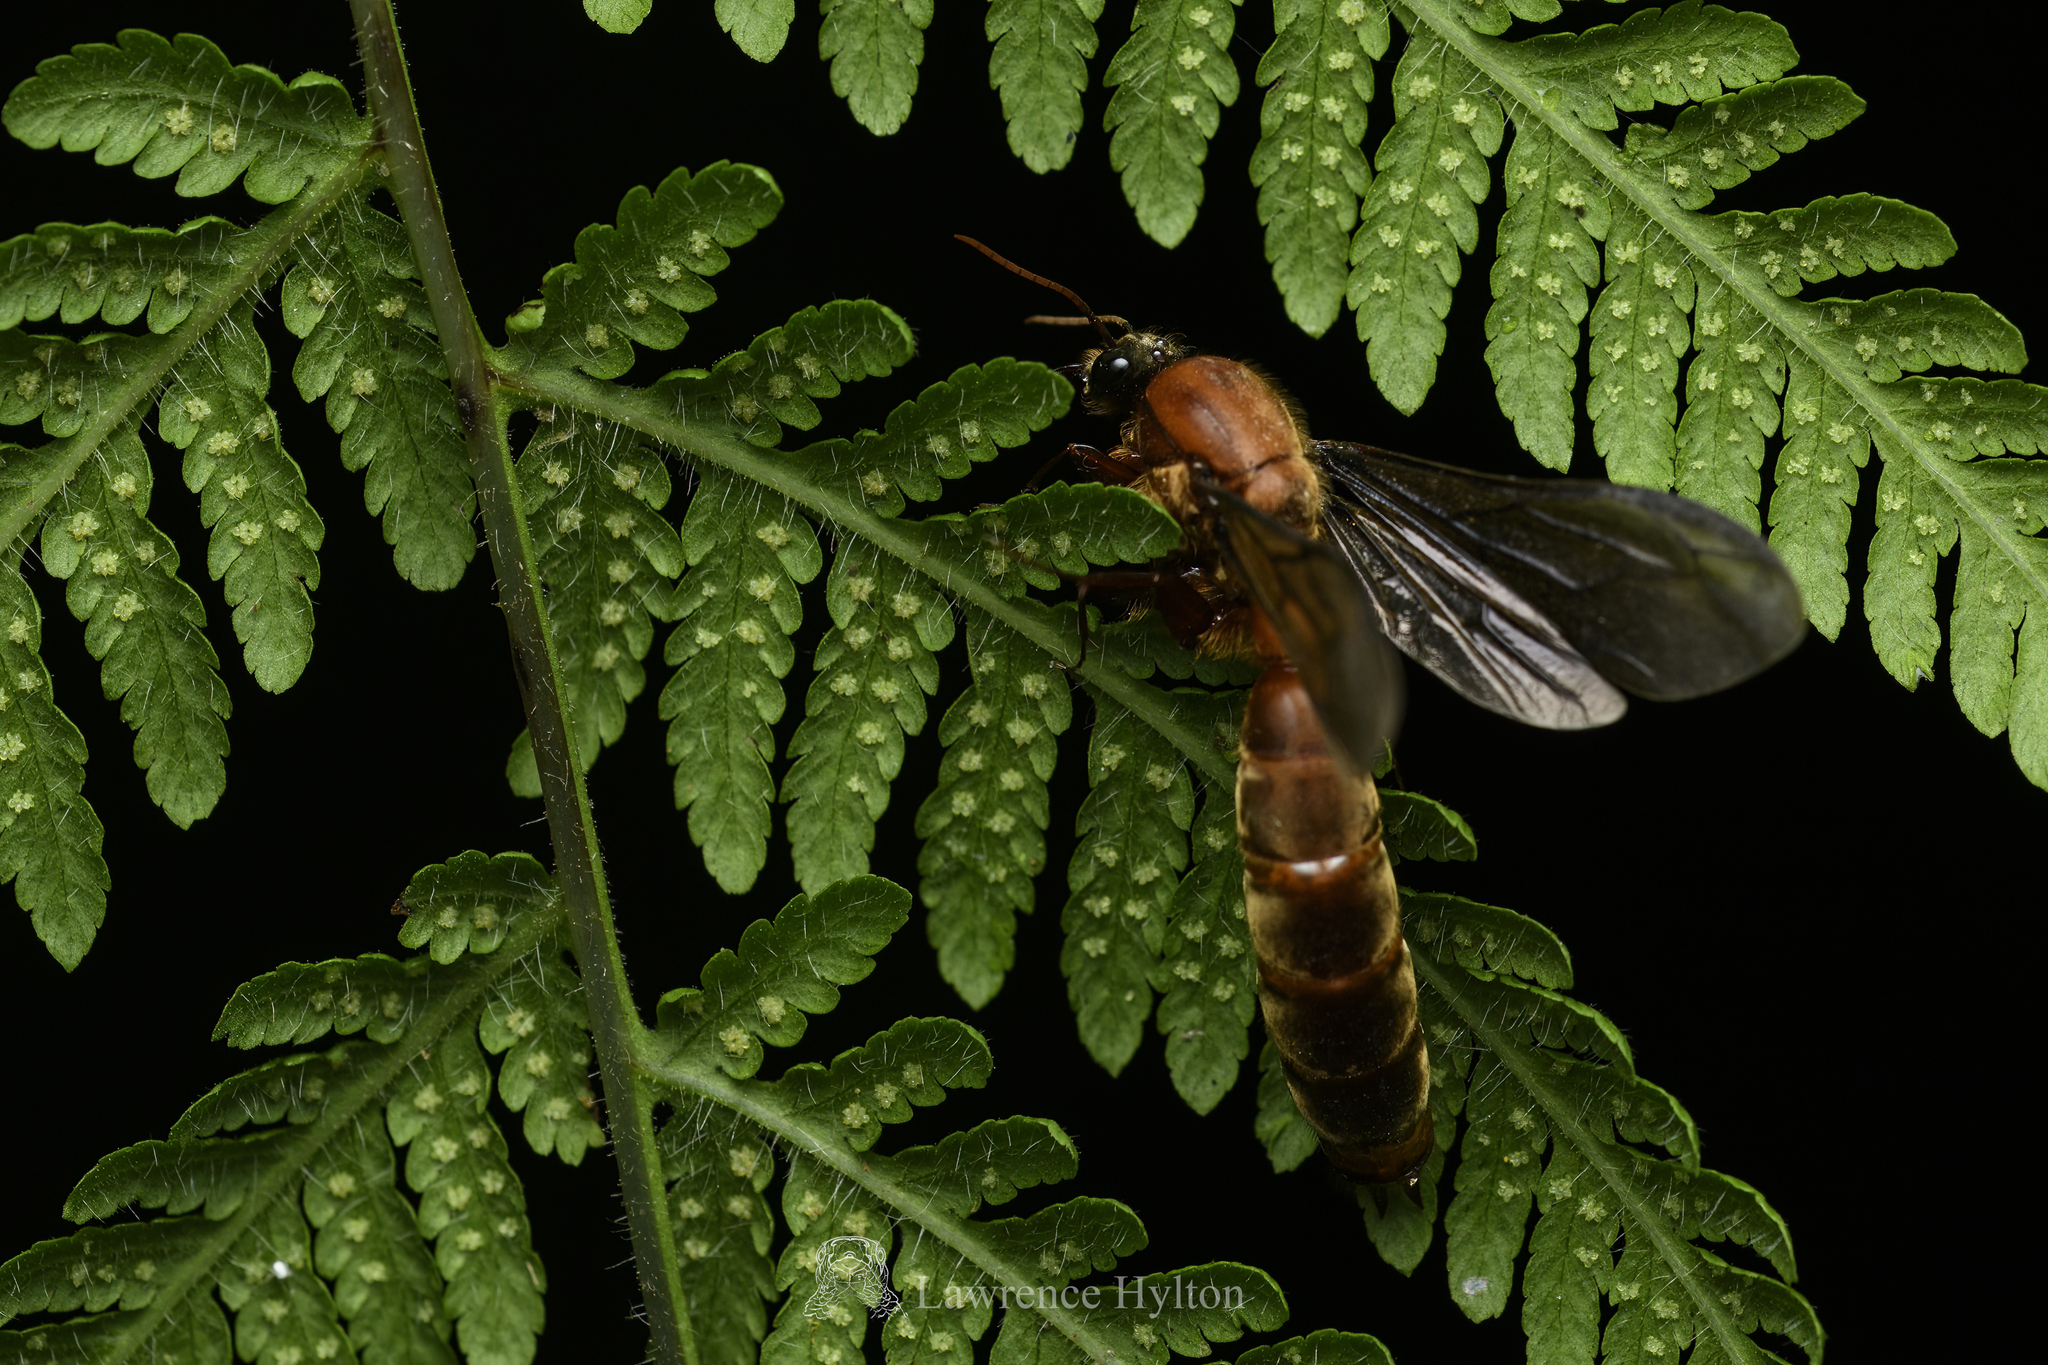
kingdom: Animalia
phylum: Arthropoda
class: Insecta
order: Hymenoptera
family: Formicidae
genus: Dorylus
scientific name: Dorylus orientalis
